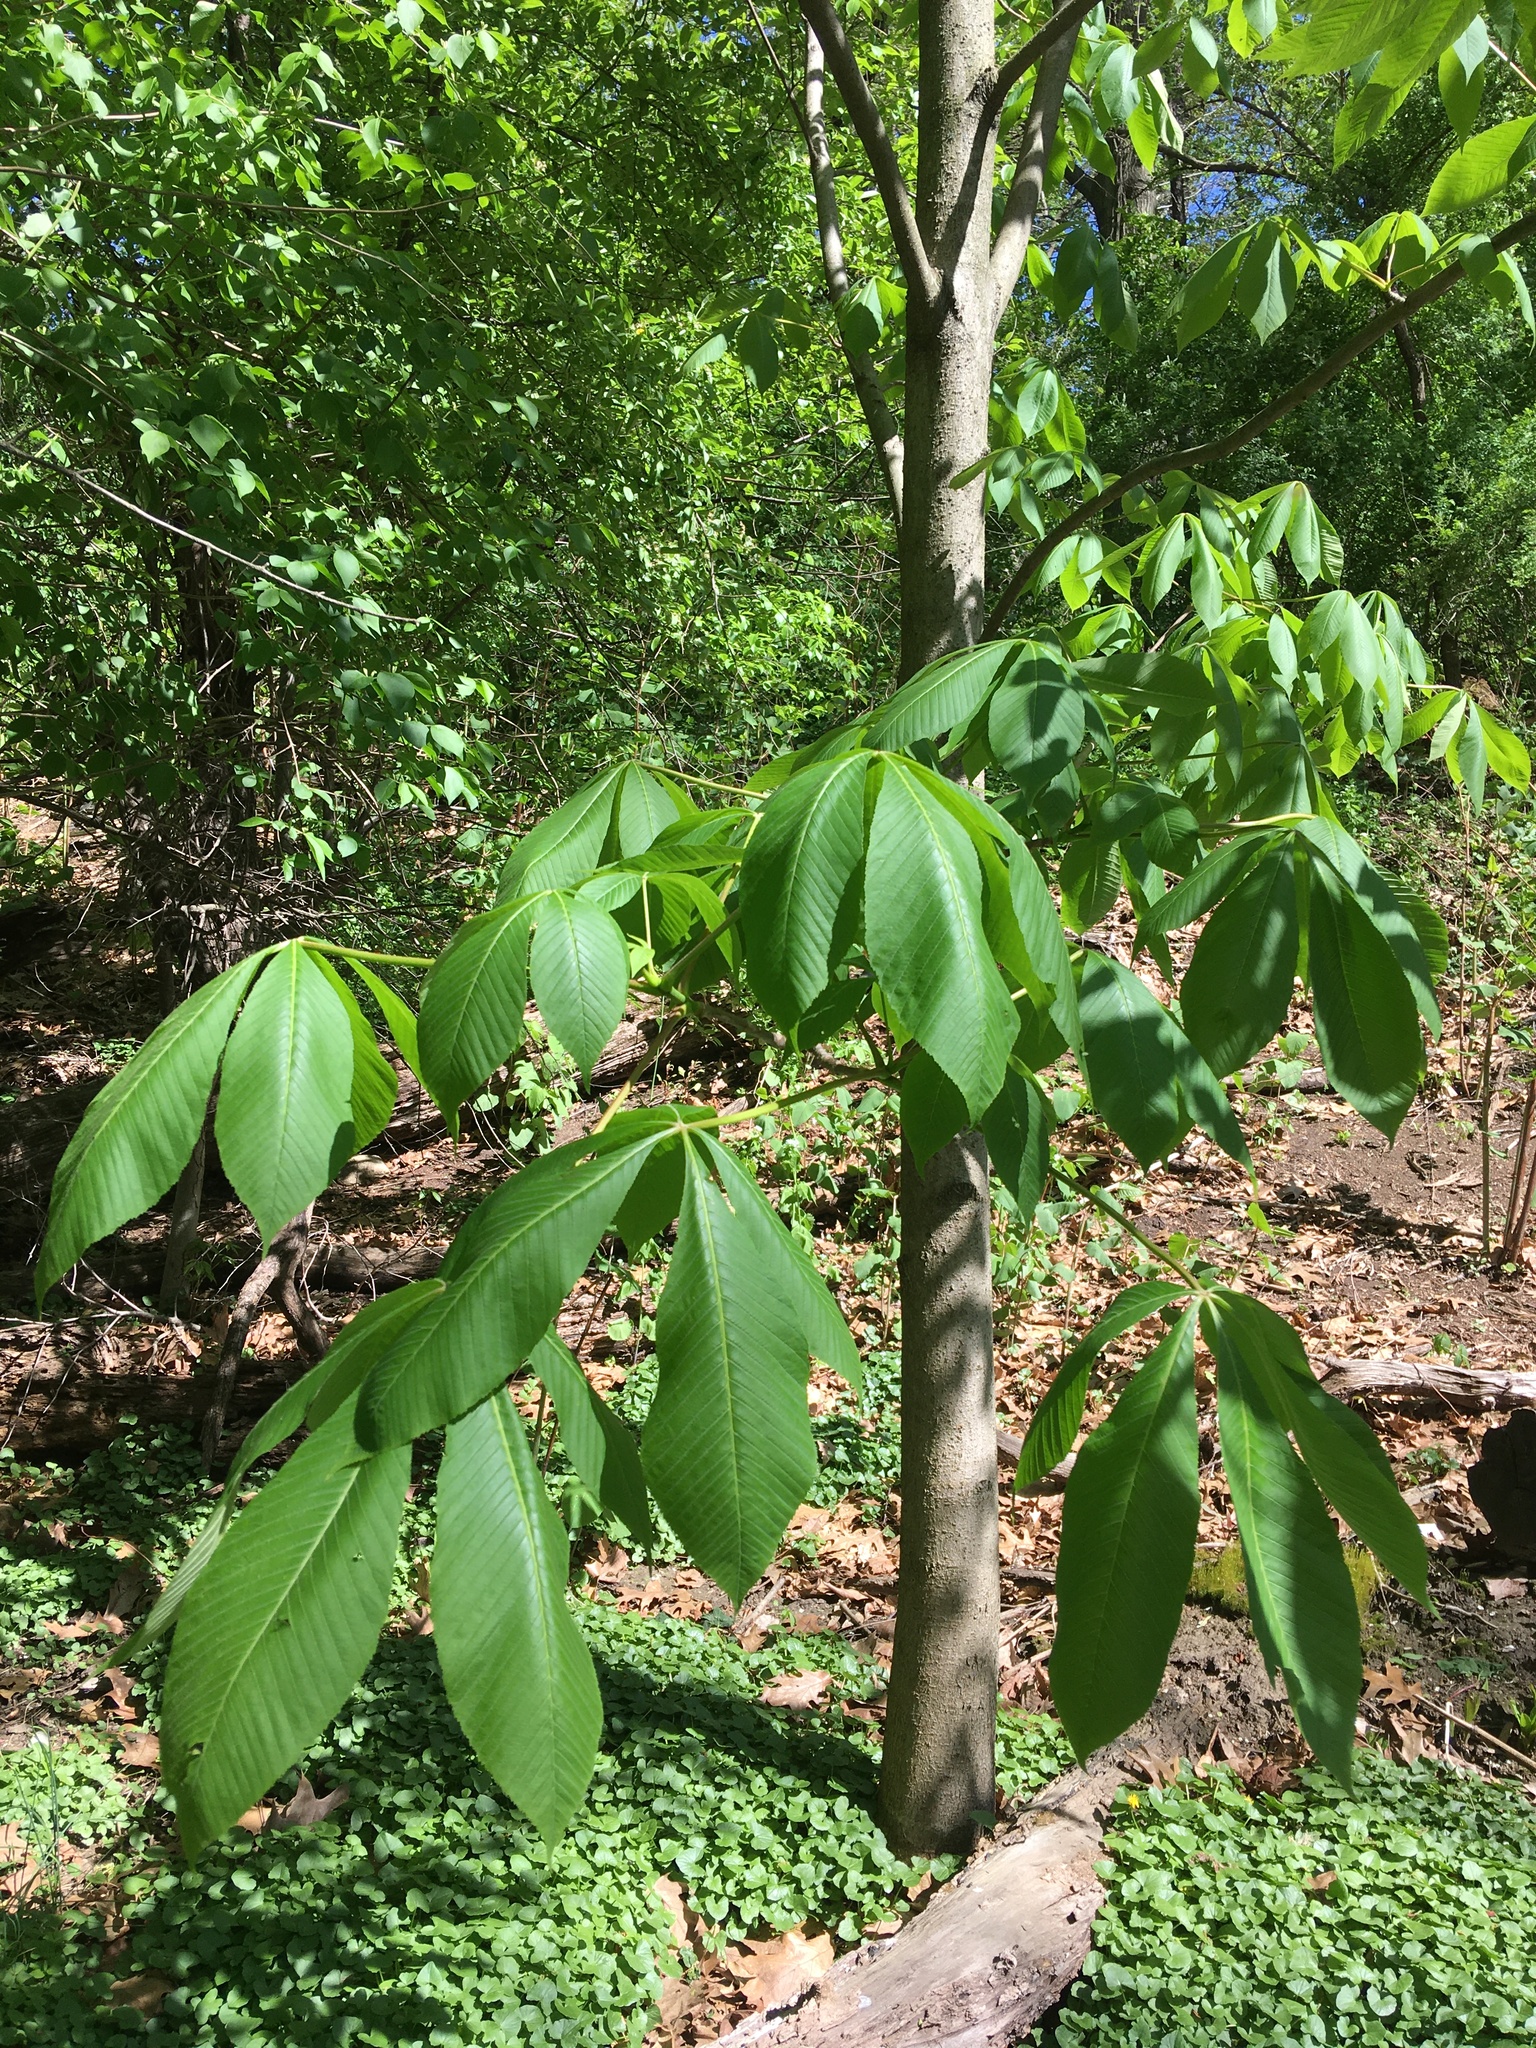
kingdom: Plantae
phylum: Tracheophyta
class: Magnoliopsida
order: Sapindales
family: Sapindaceae
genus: Aesculus
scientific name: Aesculus flava
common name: Yellow buckeye
